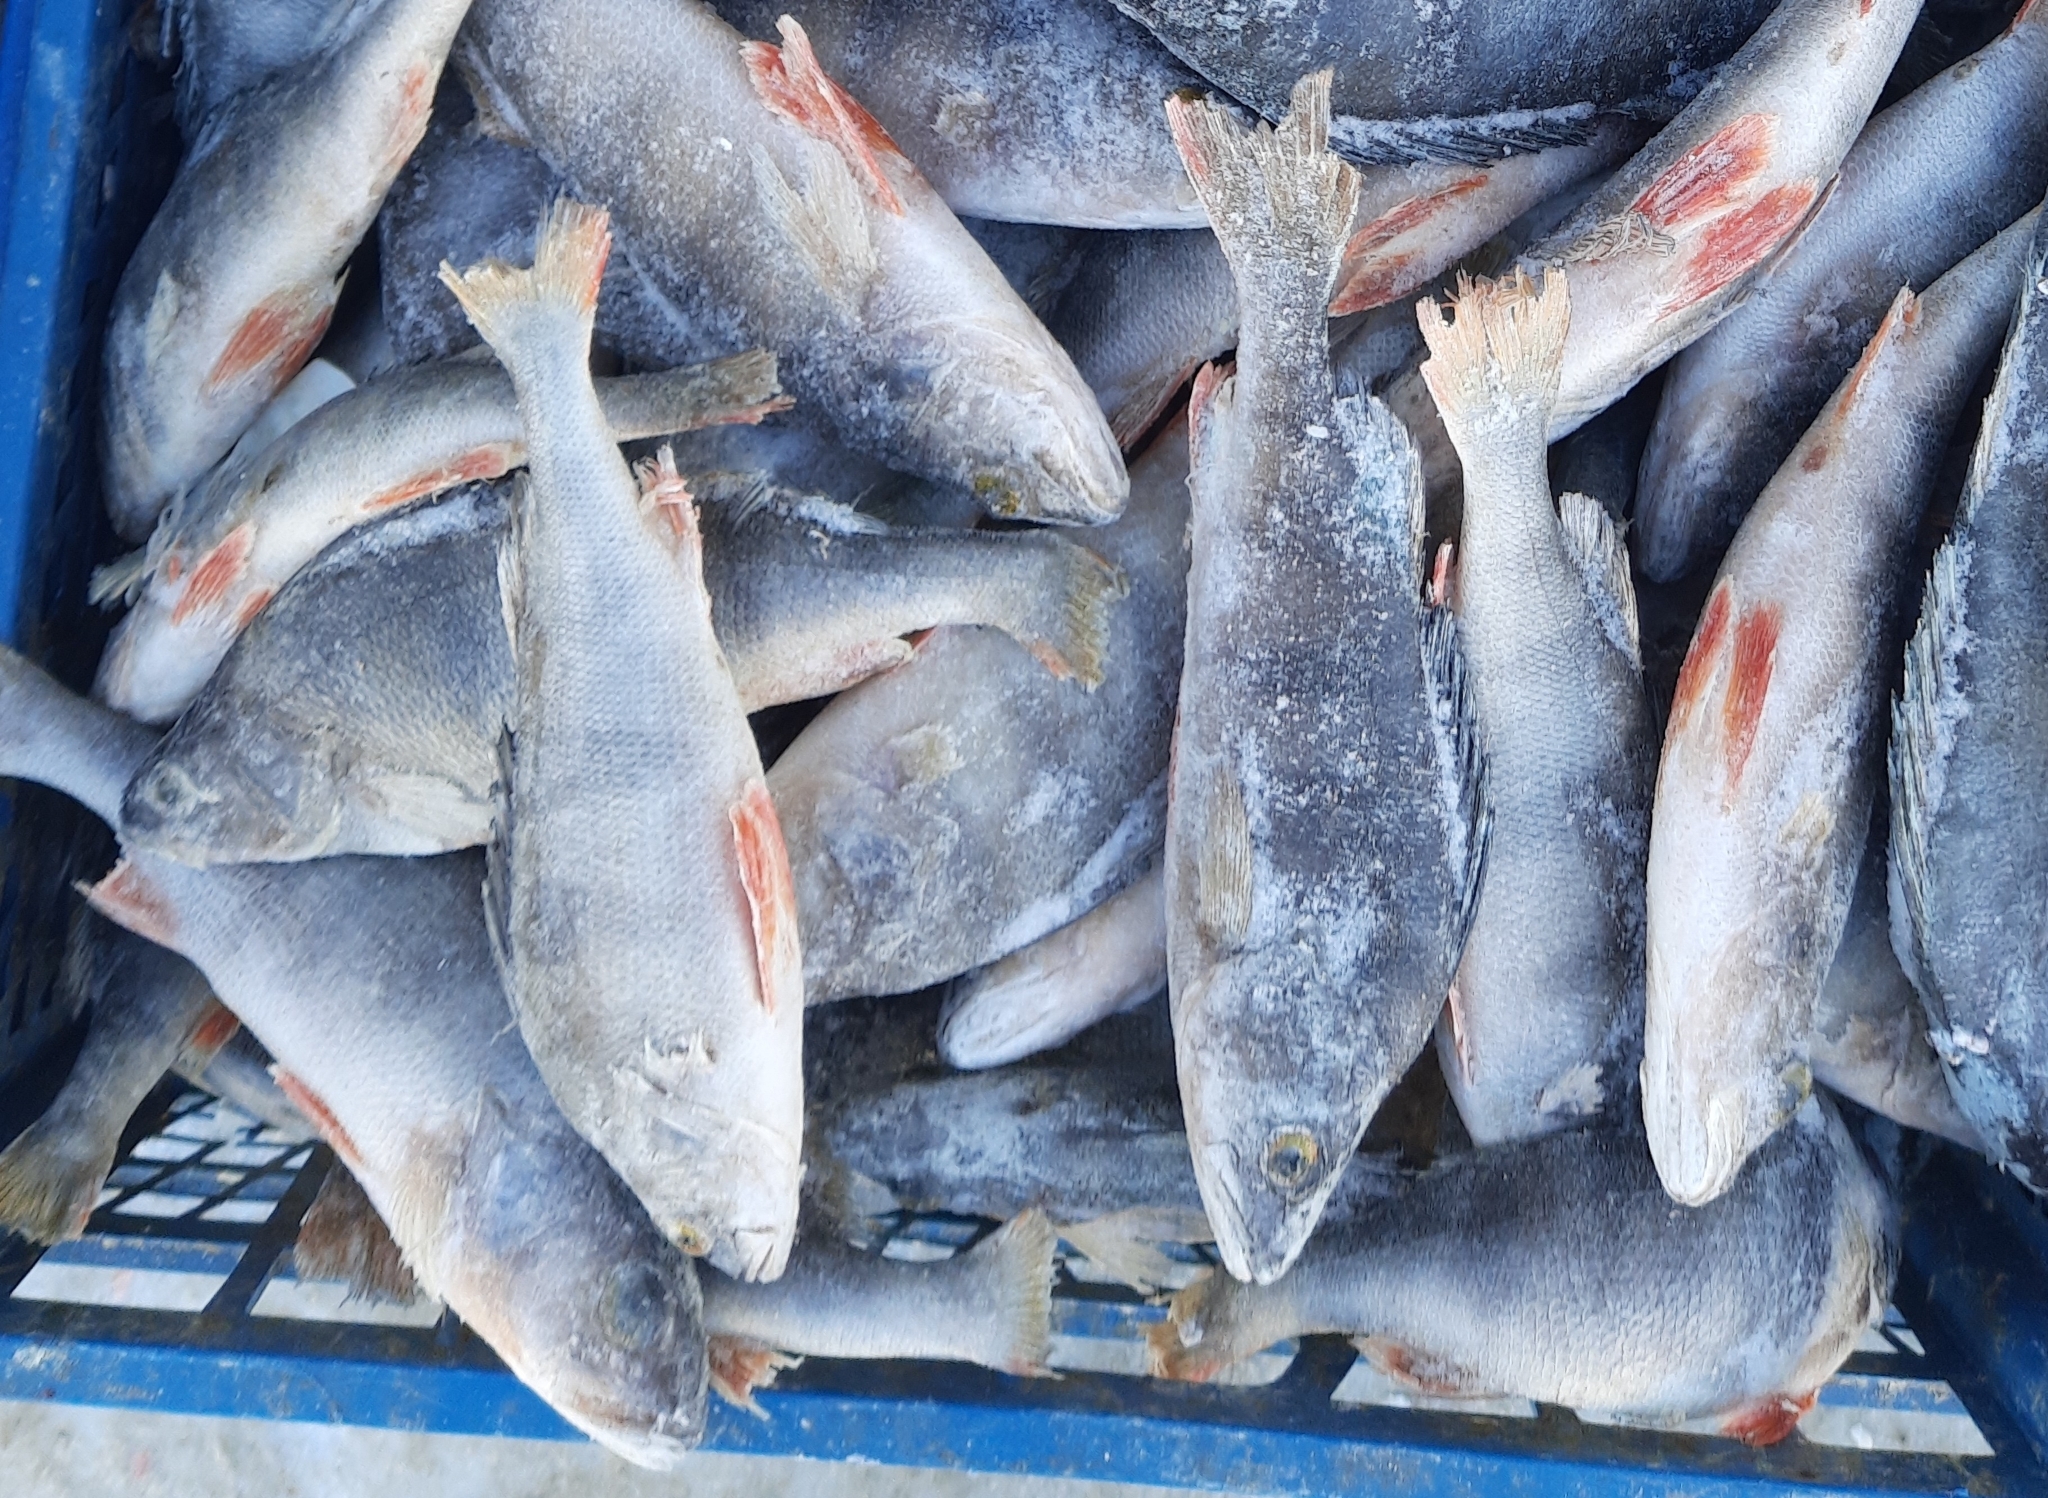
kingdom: Animalia
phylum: Chordata
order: Perciformes
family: Percidae
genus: Perca
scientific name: Perca fluviatilis
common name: Perch
